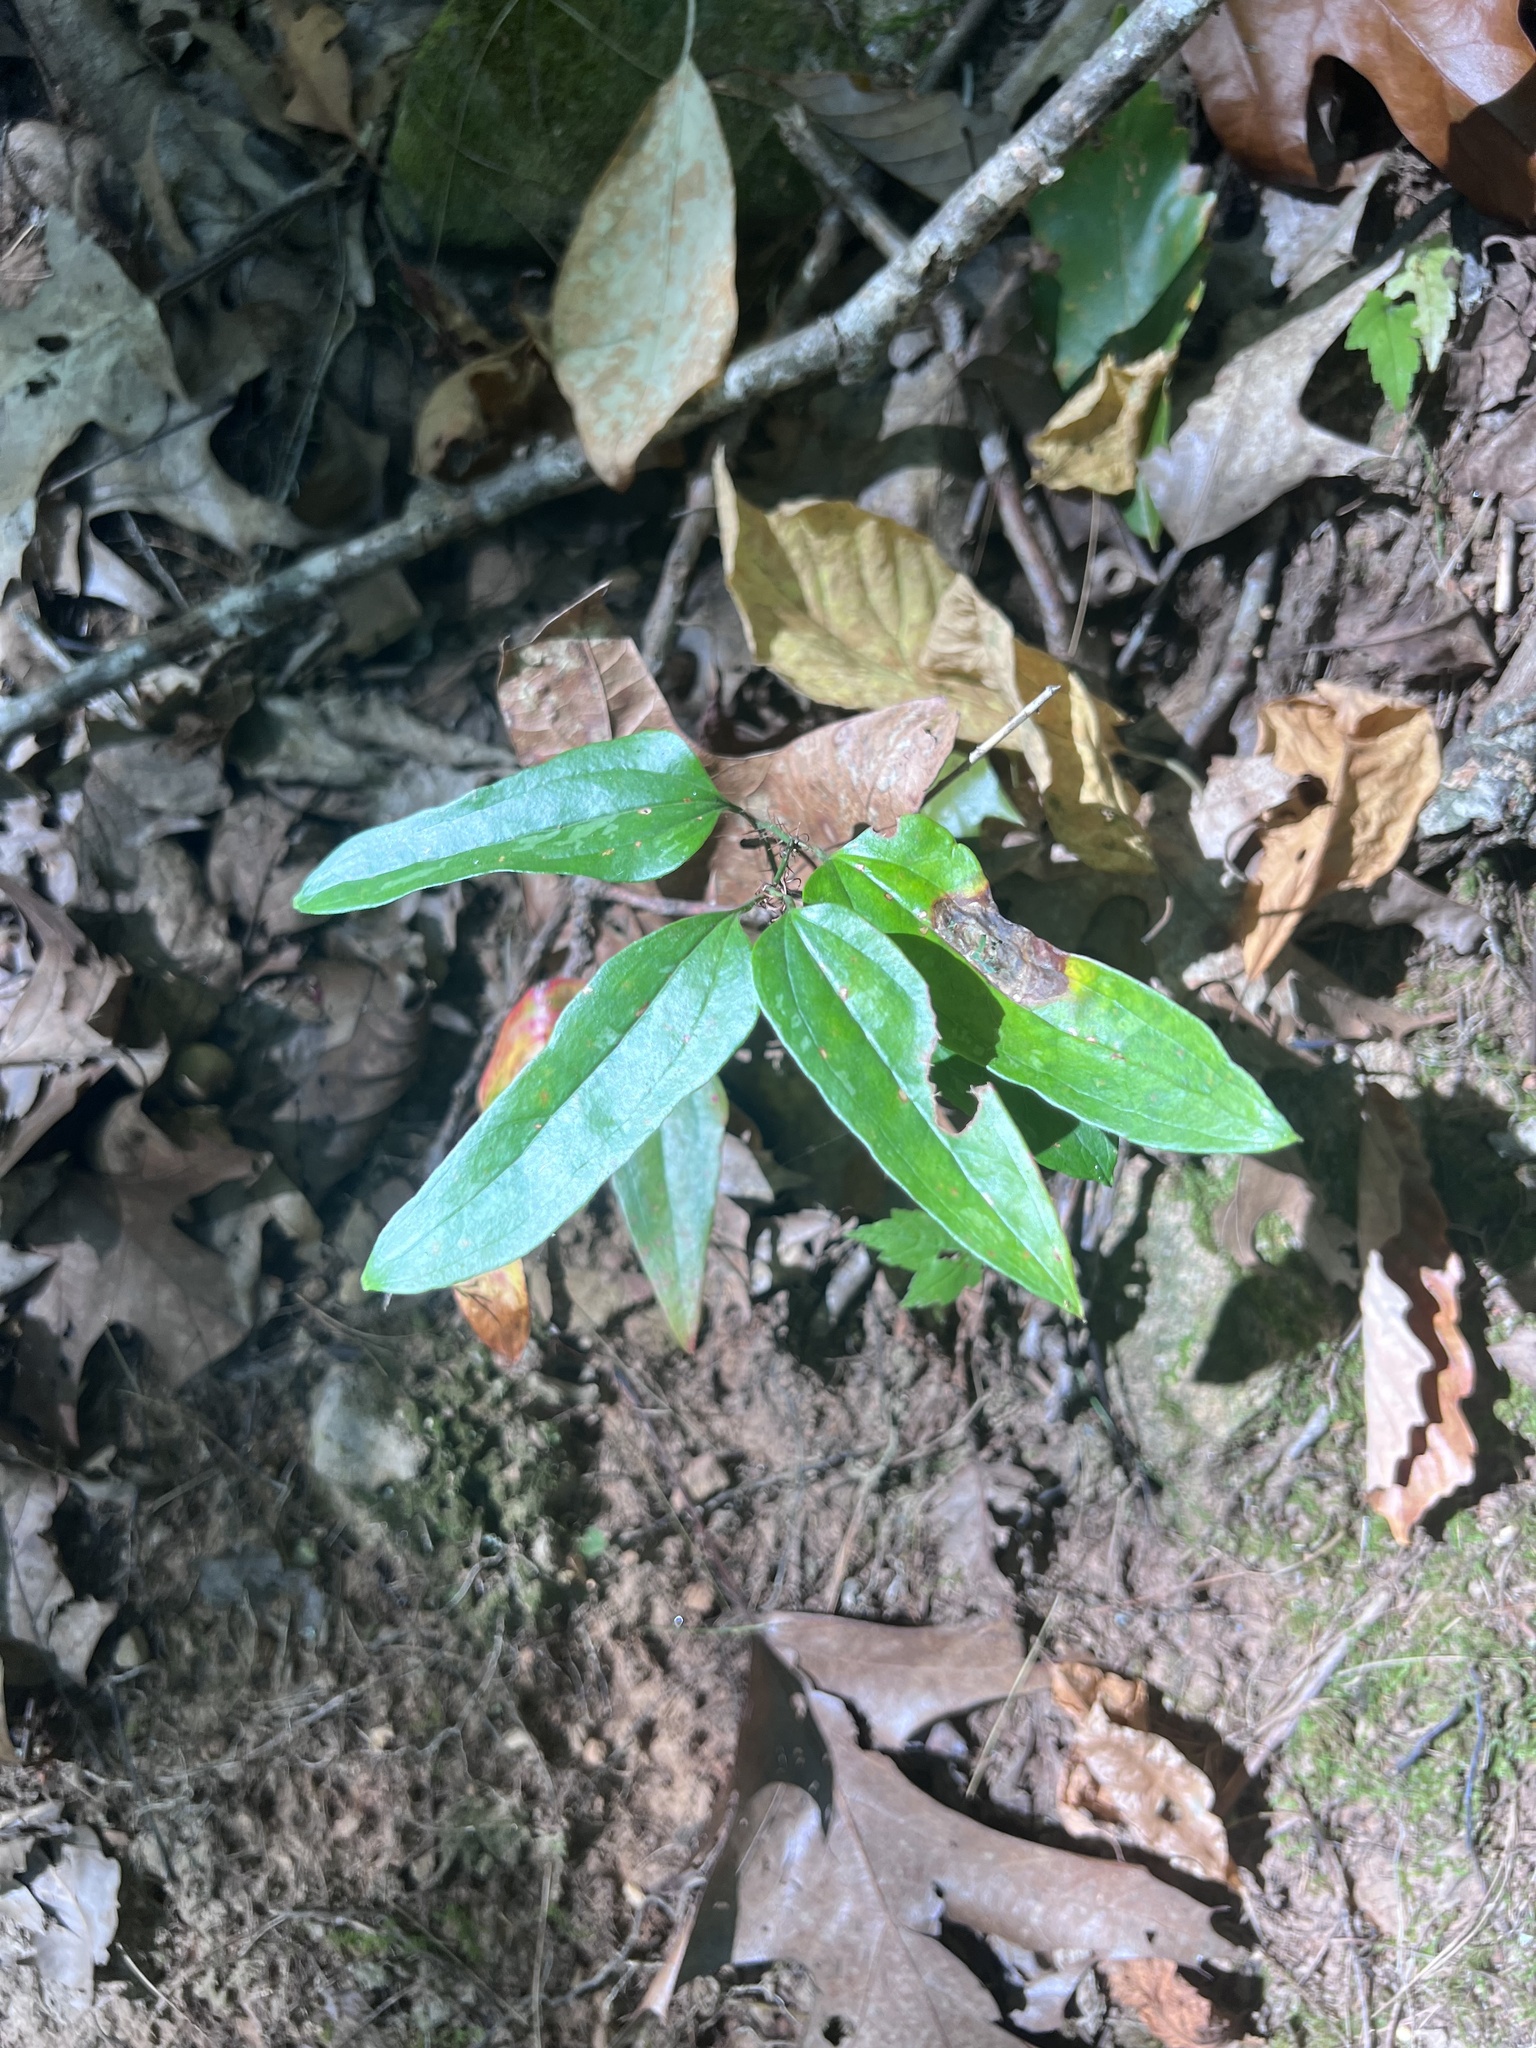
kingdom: Plantae
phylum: Tracheophyta
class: Liliopsida
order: Liliales
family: Smilacaceae
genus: Smilax
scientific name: Smilax maritima
